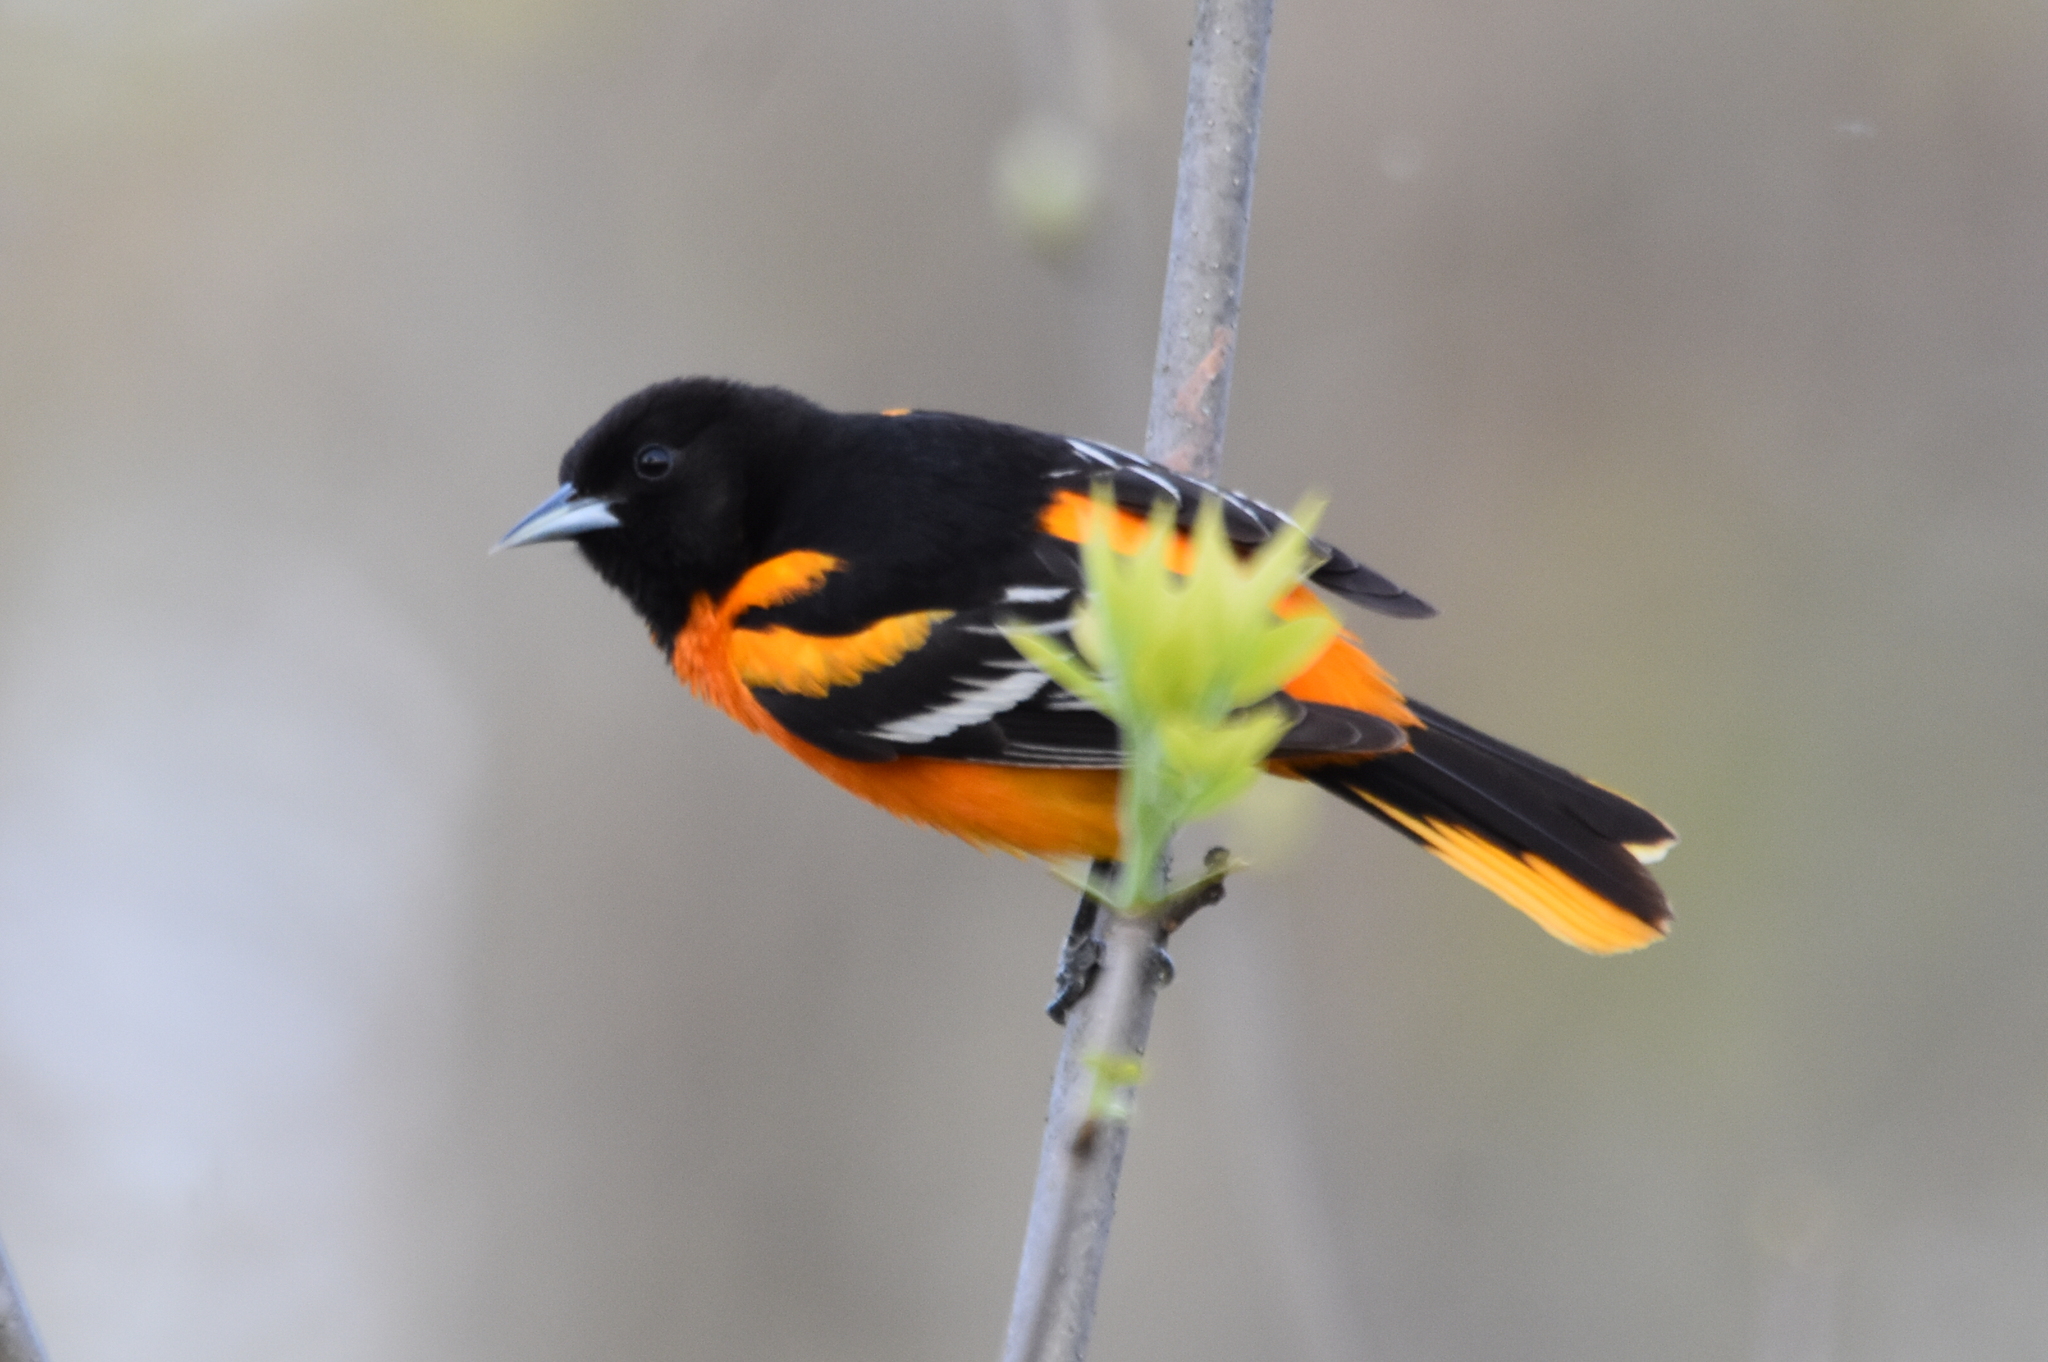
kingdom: Animalia
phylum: Chordata
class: Aves
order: Passeriformes
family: Icteridae
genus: Icterus
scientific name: Icterus galbula
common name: Baltimore oriole
